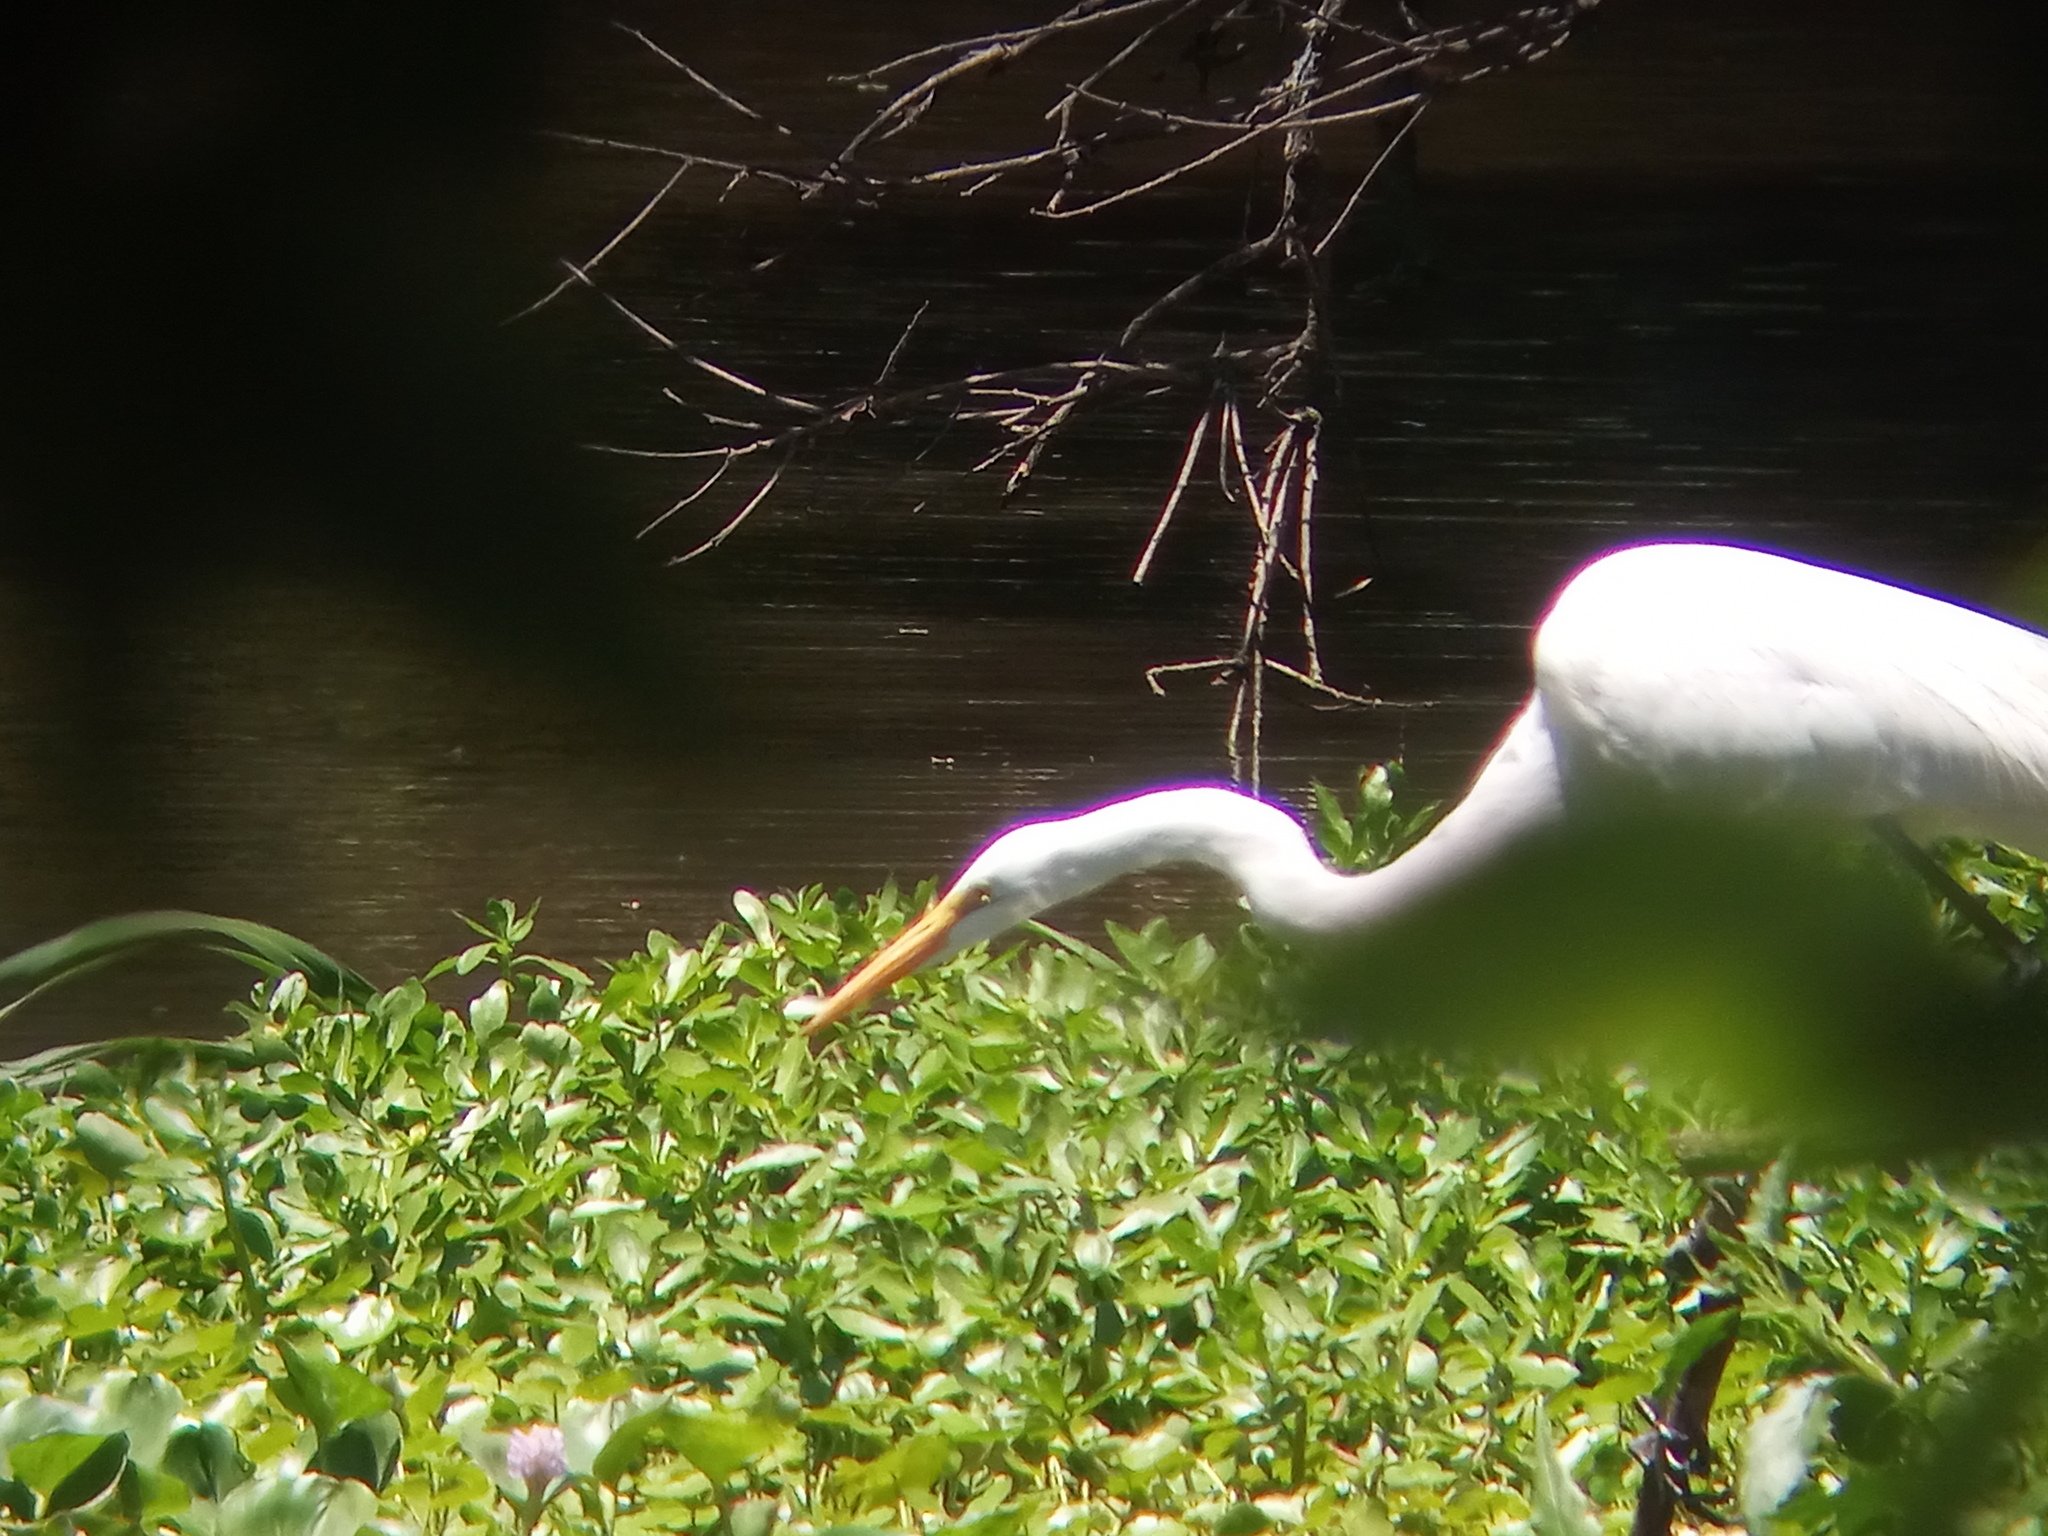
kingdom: Animalia
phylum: Chordata
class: Aves
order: Pelecaniformes
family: Ardeidae
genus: Ardea
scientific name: Ardea alba
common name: Great egret
